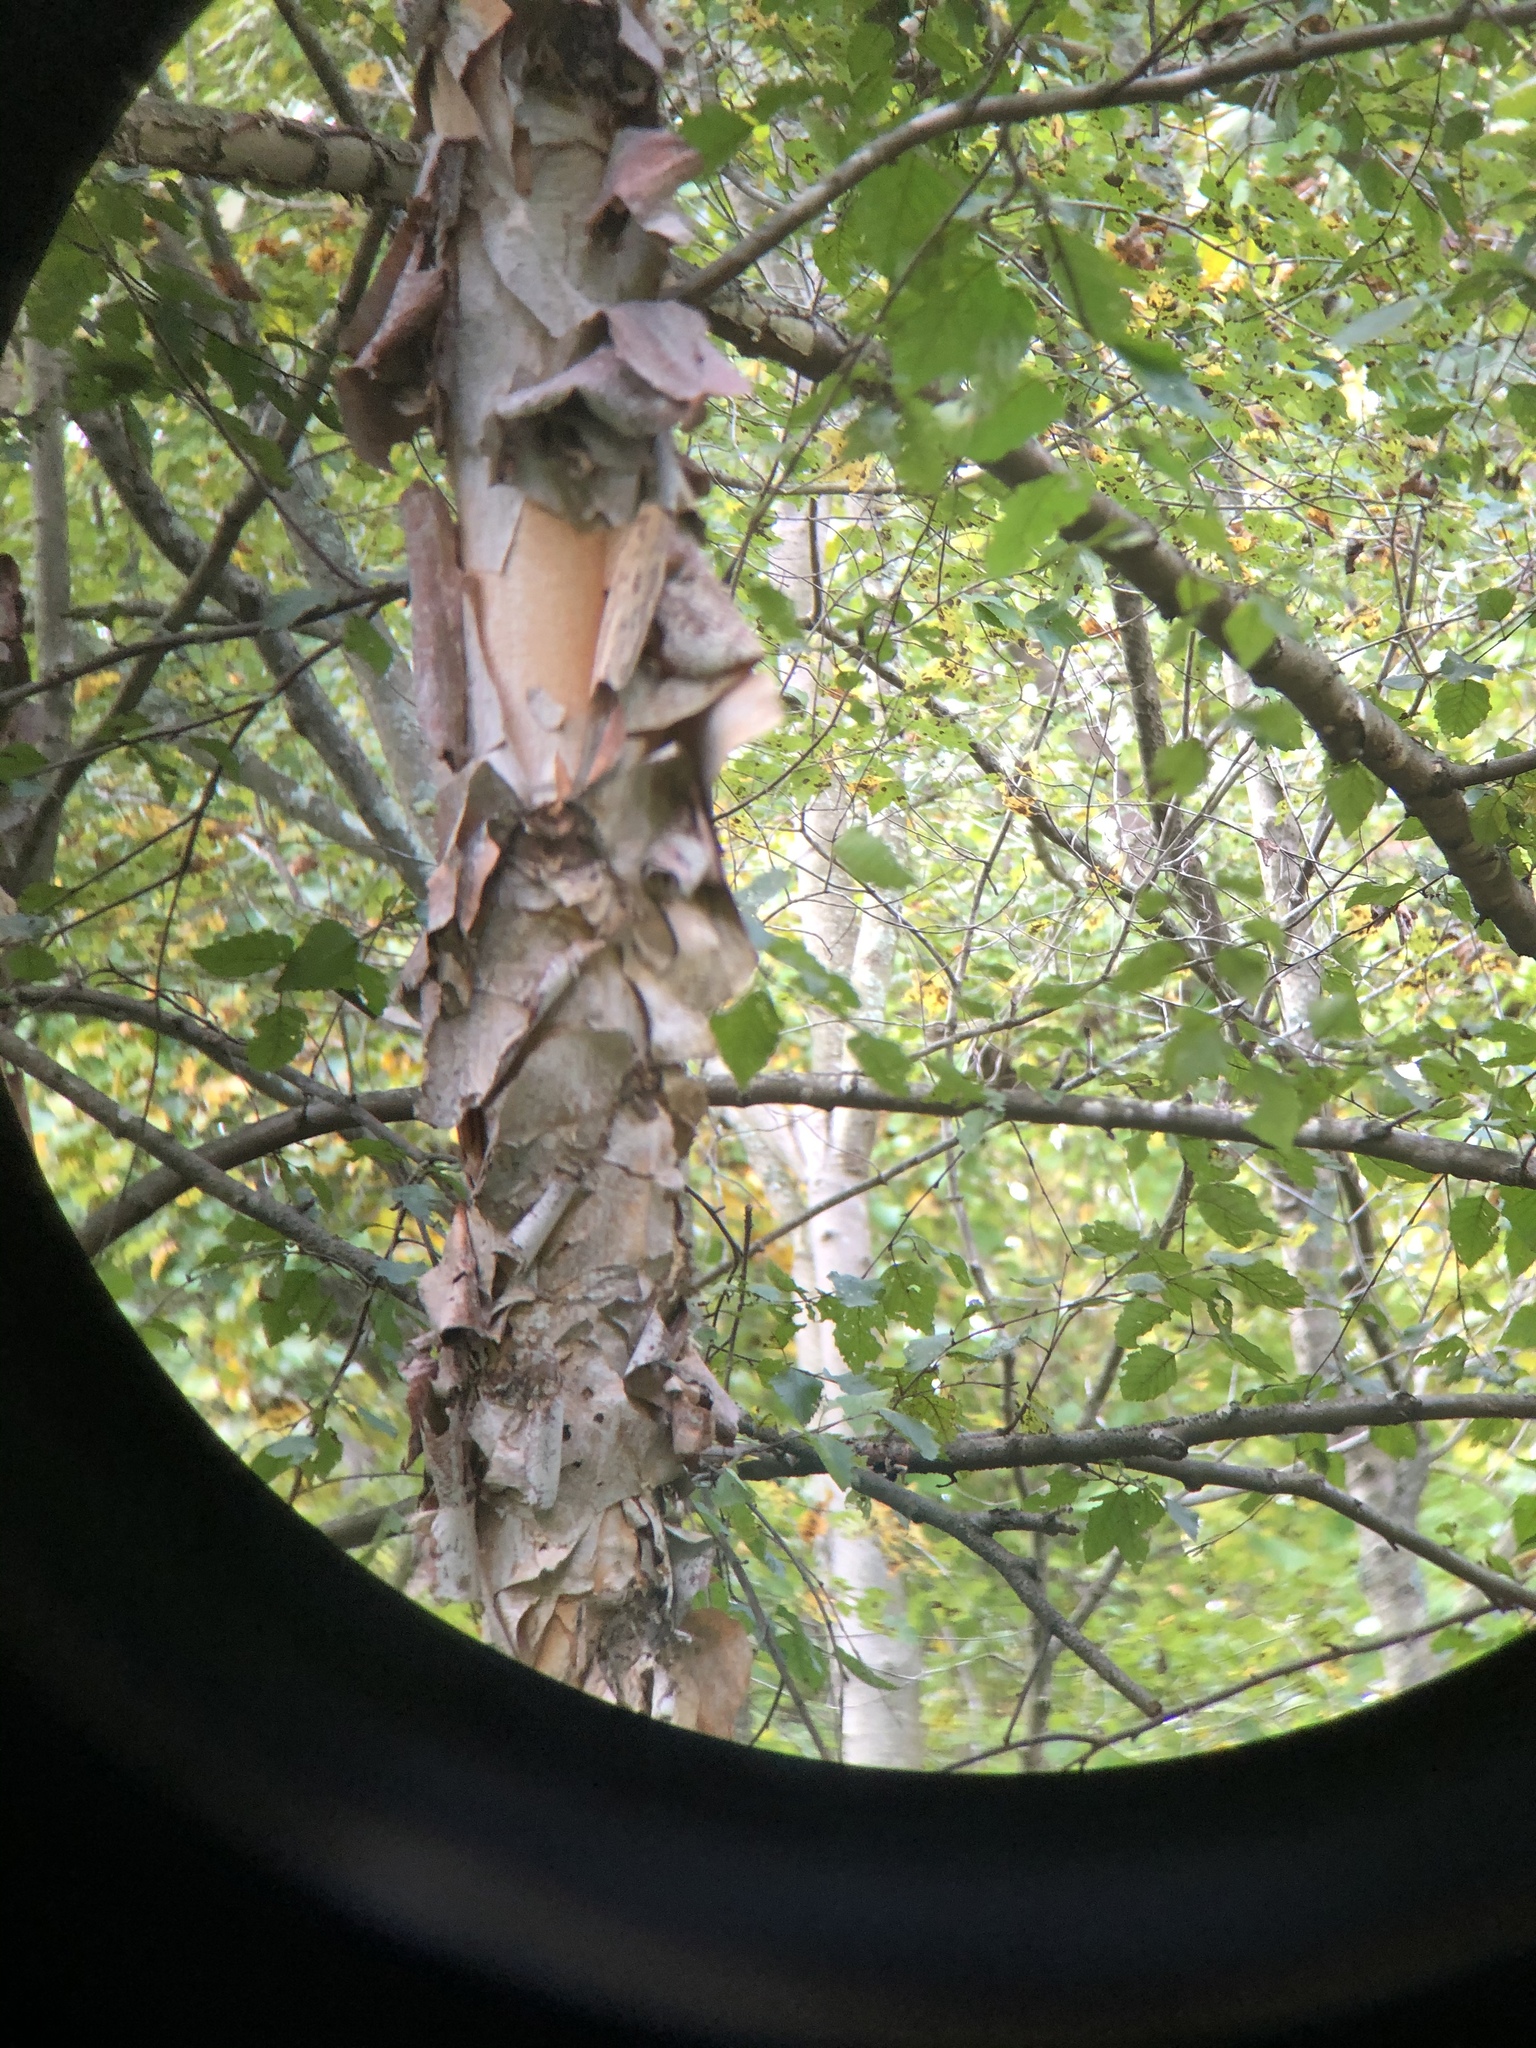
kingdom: Plantae
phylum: Tracheophyta
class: Magnoliopsida
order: Fagales
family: Betulaceae
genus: Betula
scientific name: Betula nigra
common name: Black birch
